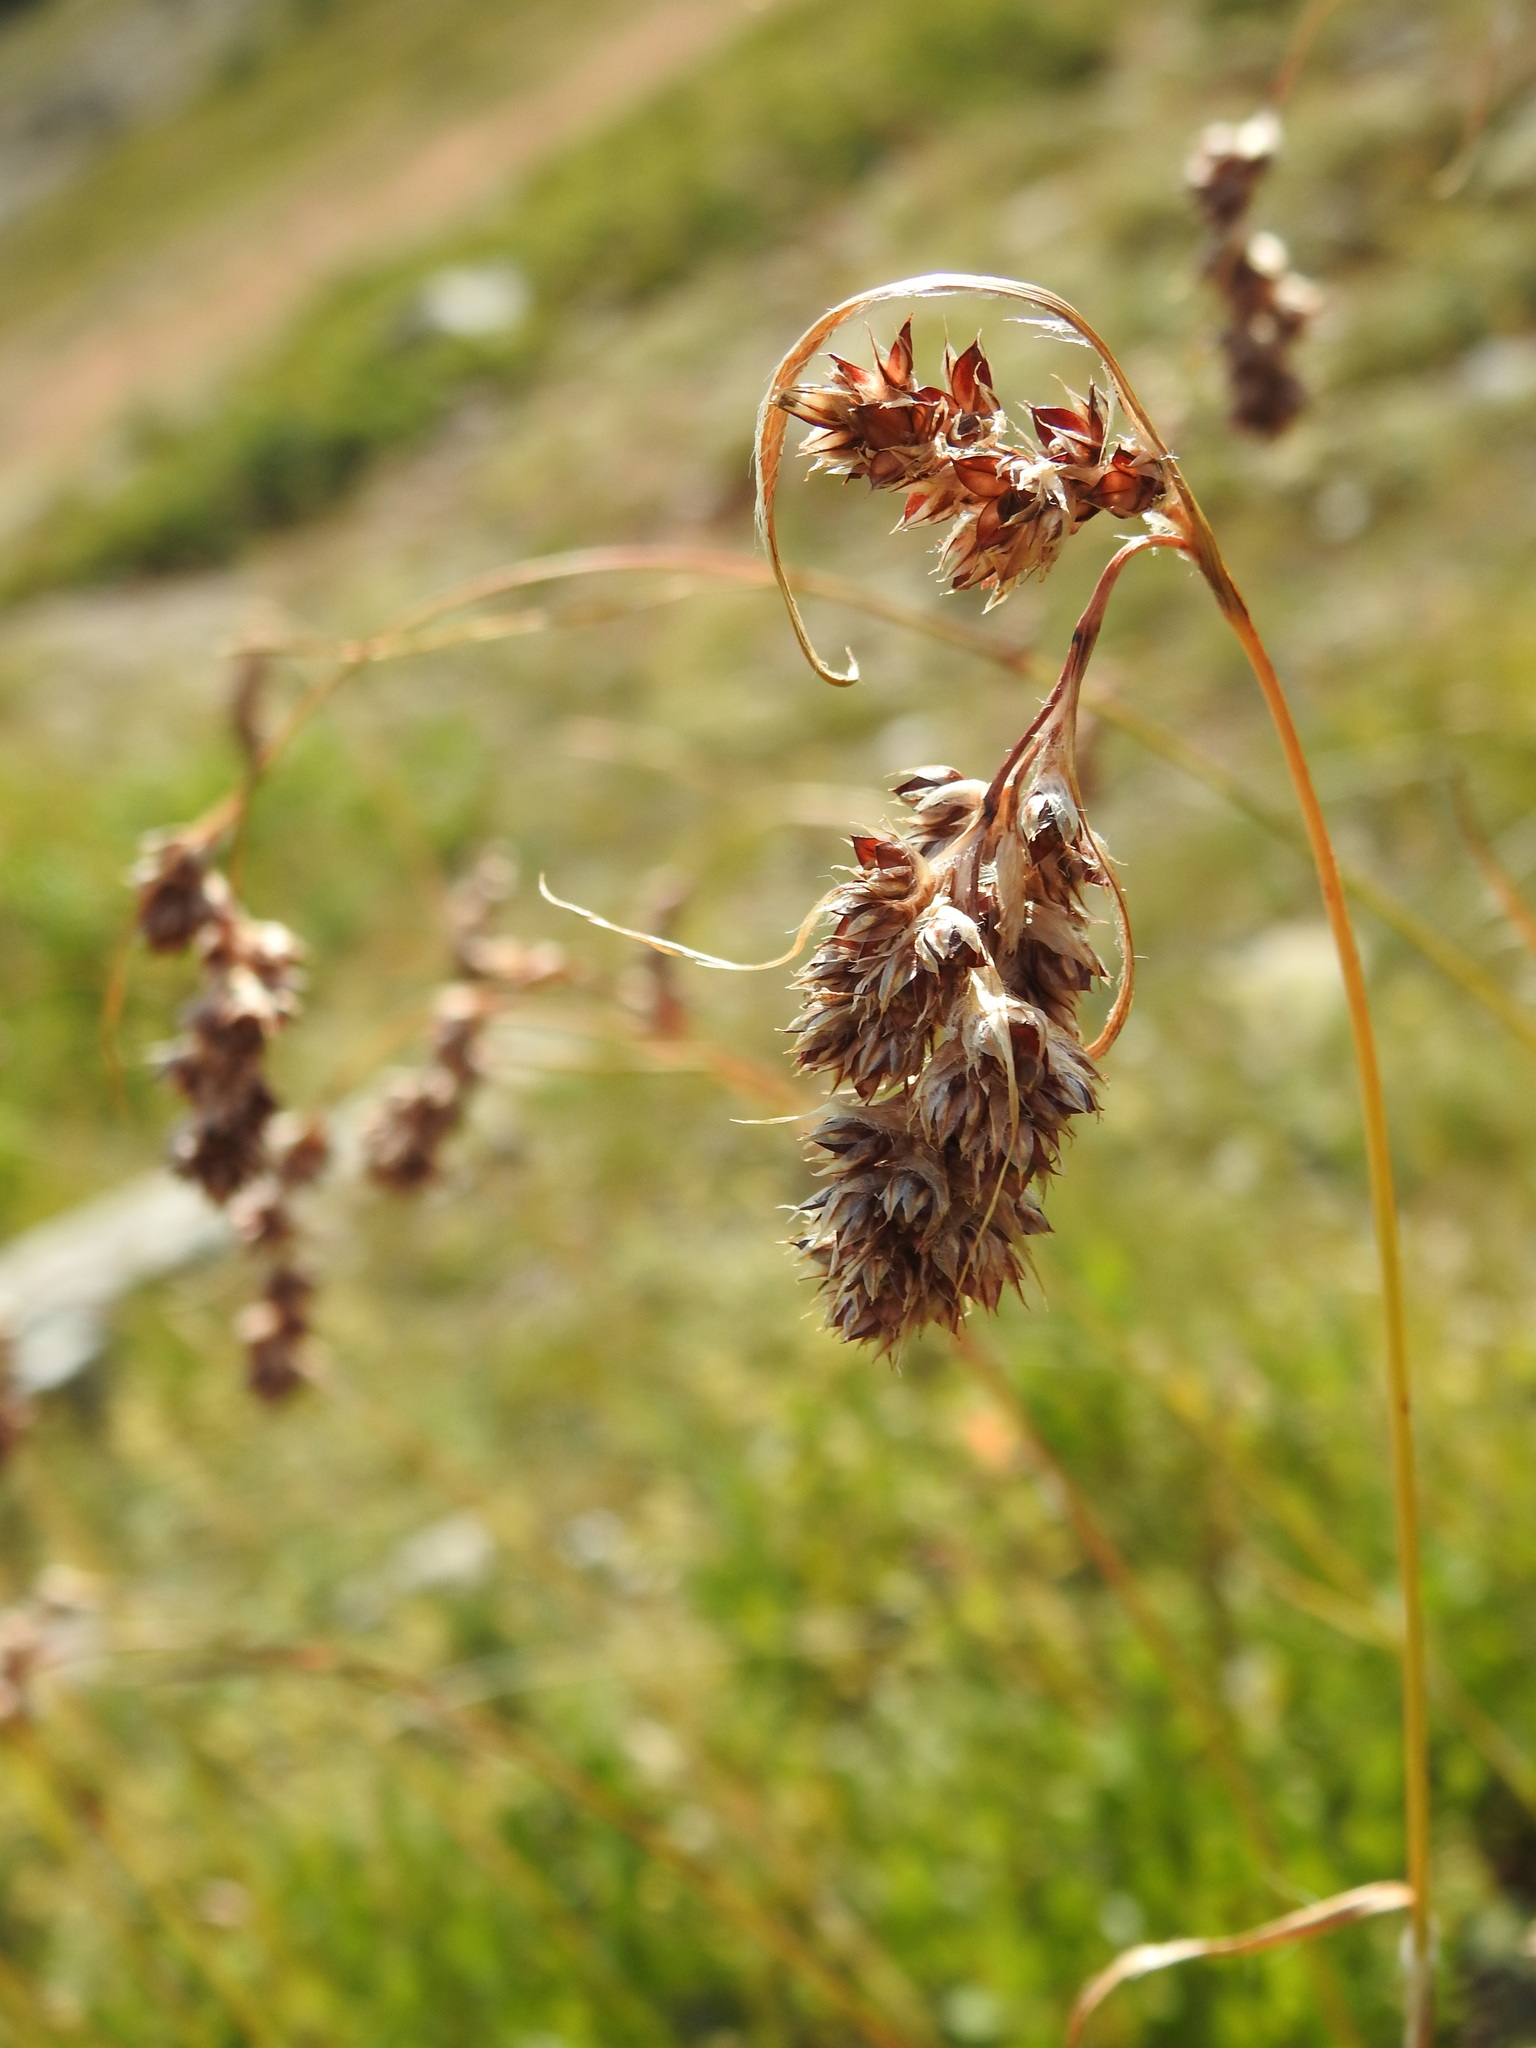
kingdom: Plantae
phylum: Tracheophyta
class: Liliopsida
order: Poales
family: Juncaceae
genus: Luzula
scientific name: Luzula spicata
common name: Spiked wood-rush
